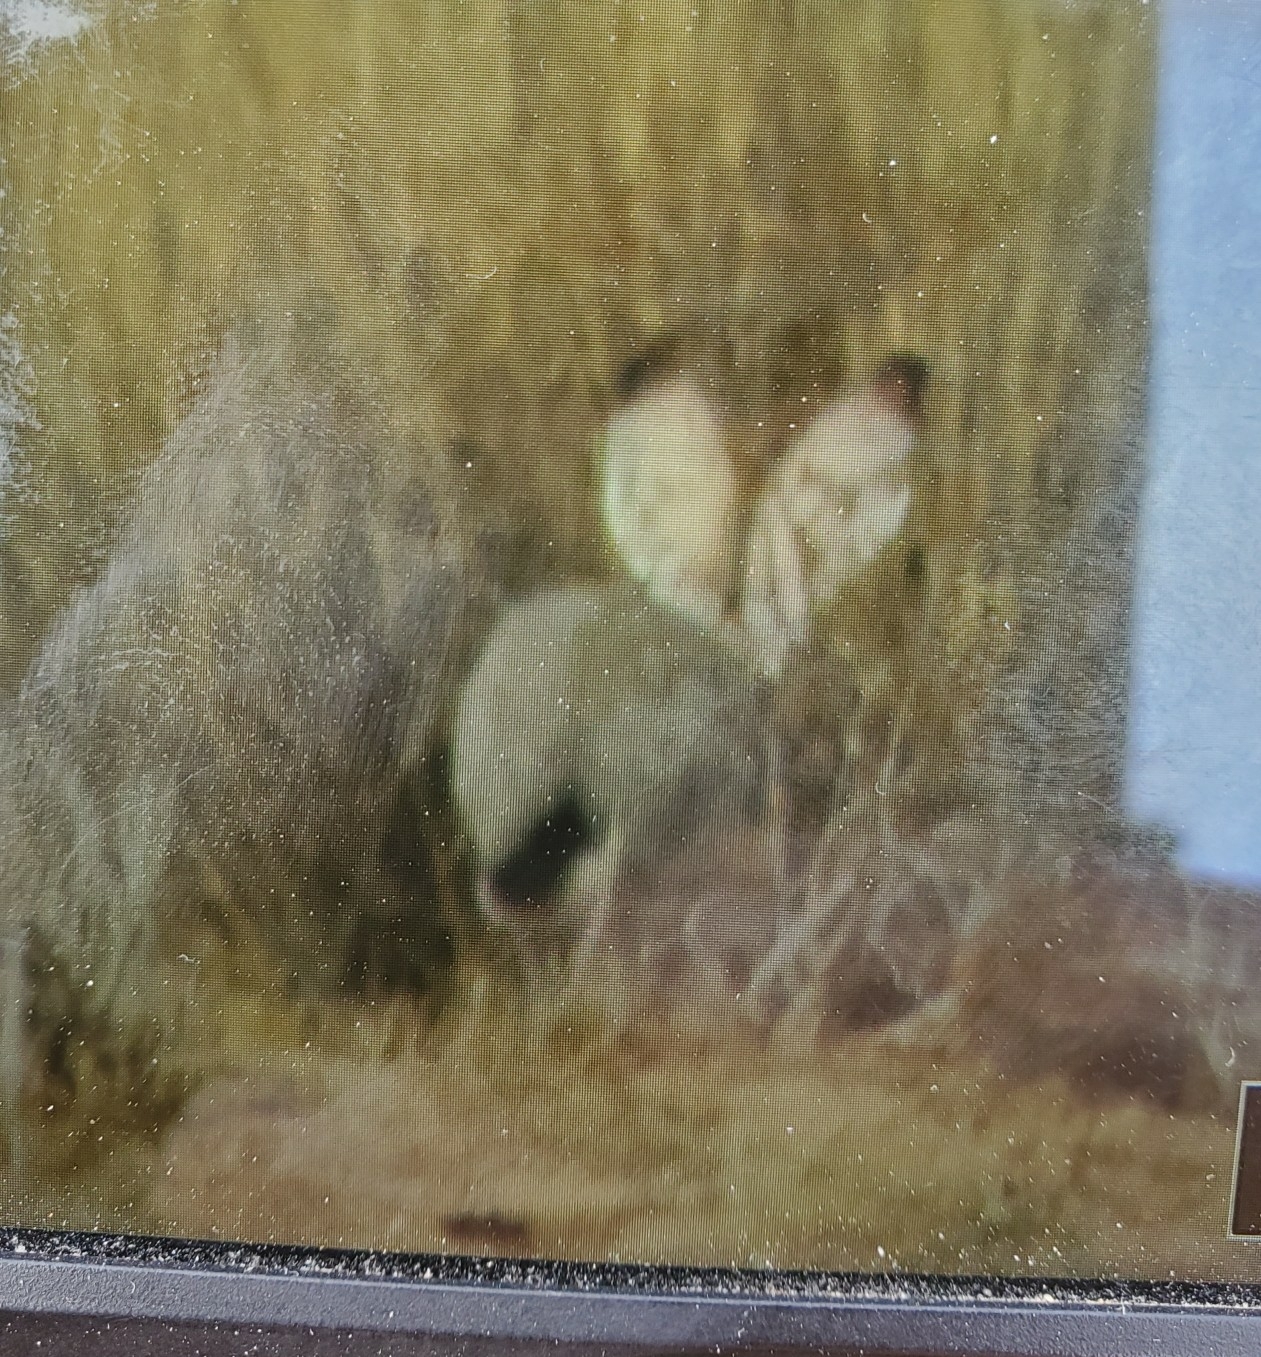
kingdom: Animalia
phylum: Chordata
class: Mammalia
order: Lagomorpha
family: Leporidae
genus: Lepus
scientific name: Lepus californicus
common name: Black-tailed jackrabbit
